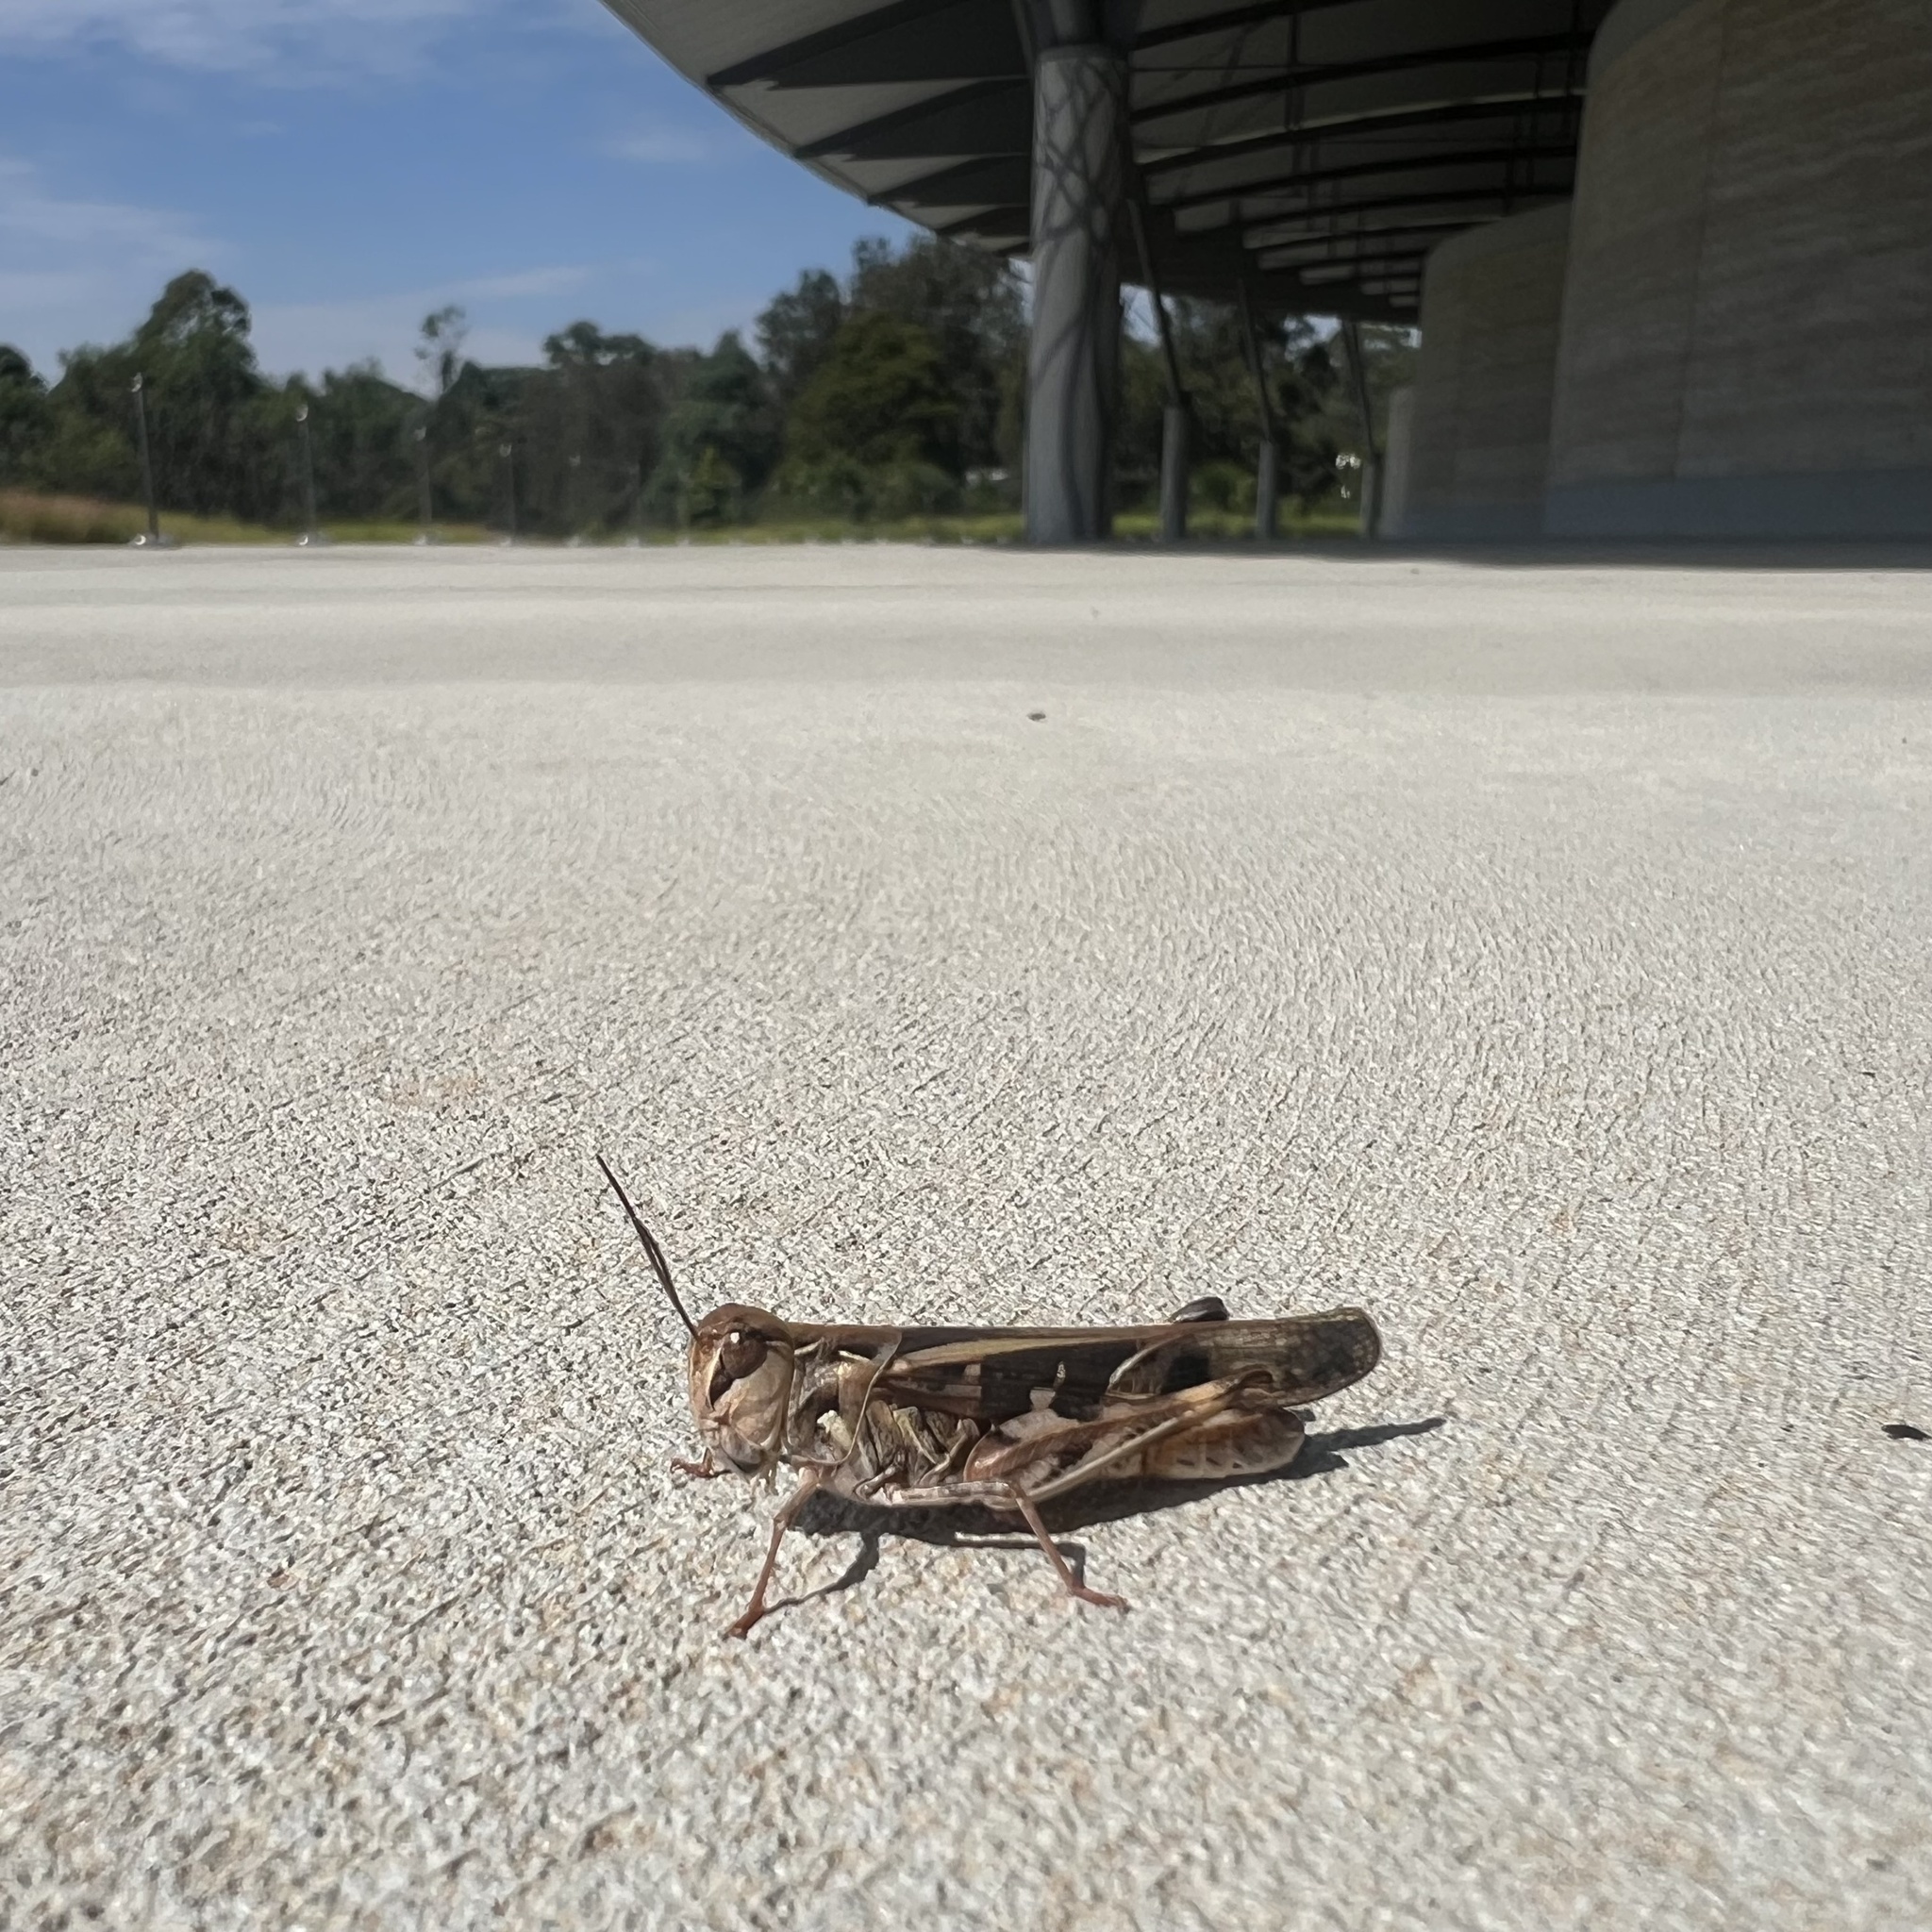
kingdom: Animalia
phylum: Arthropoda
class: Insecta
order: Orthoptera
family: Acrididae
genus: Oedaleus
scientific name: Oedaleus australis
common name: Eastern oedaleus
